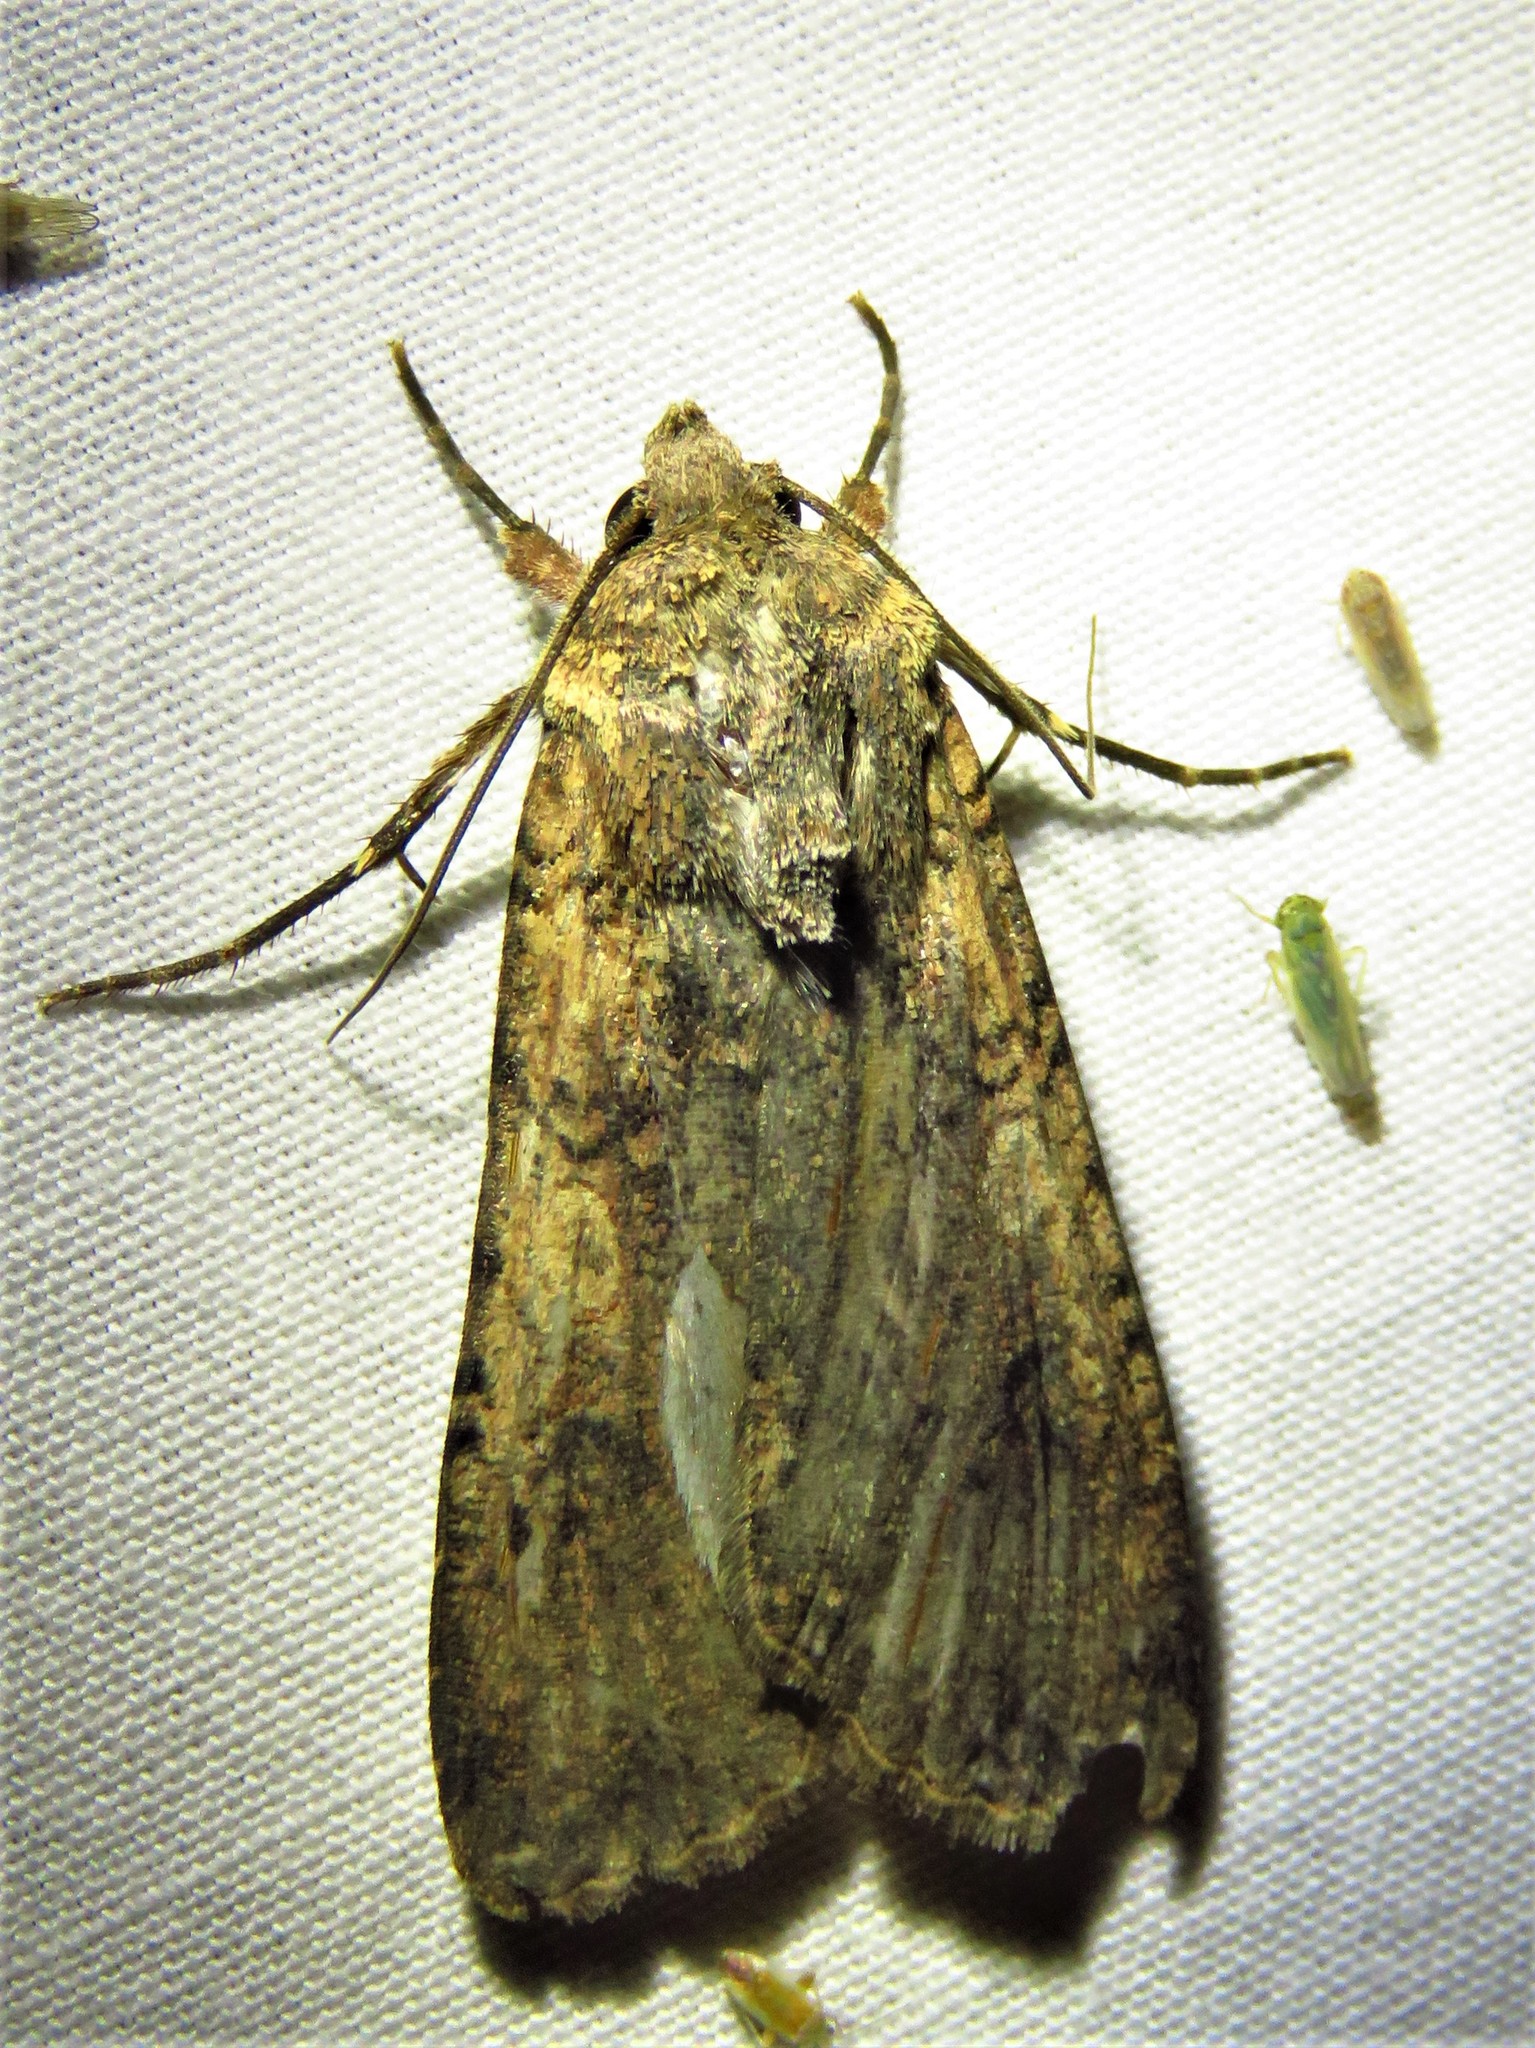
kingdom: Animalia
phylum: Arthropoda
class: Insecta
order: Lepidoptera
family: Noctuidae
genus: Peridroma
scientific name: Peridroma saucia
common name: Pearly underwing
